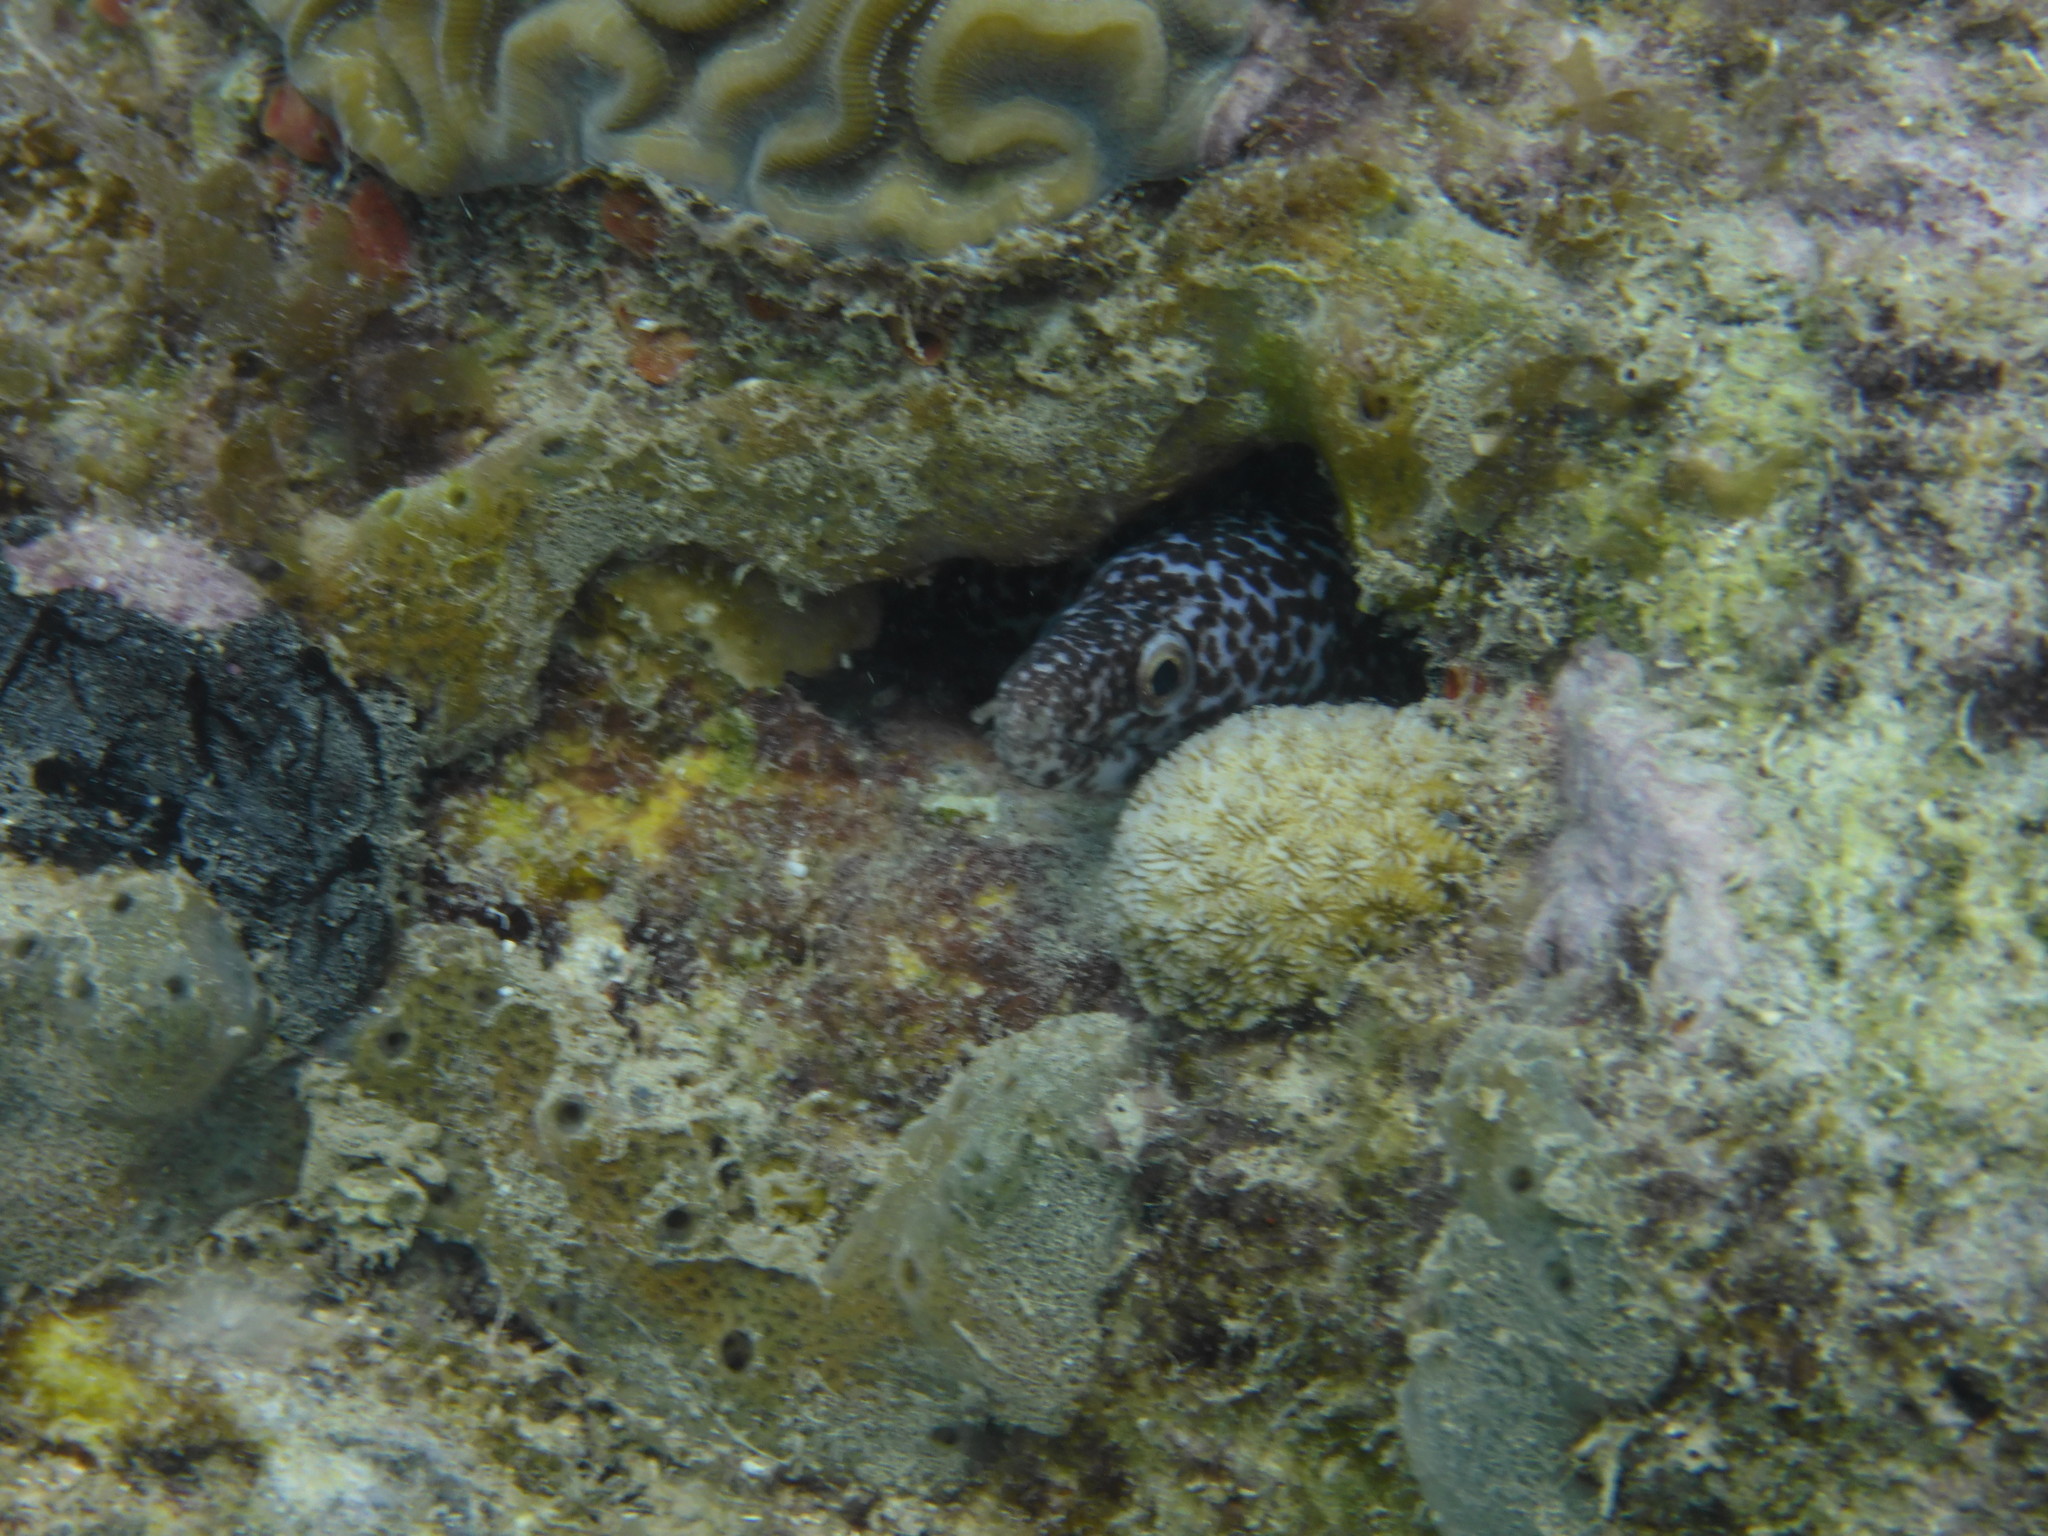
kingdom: Animalia
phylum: Chordata
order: Anguilliformes
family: Muraenidae
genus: Gymnothorax
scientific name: Gymnothorax moringa
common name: Spotted moray
